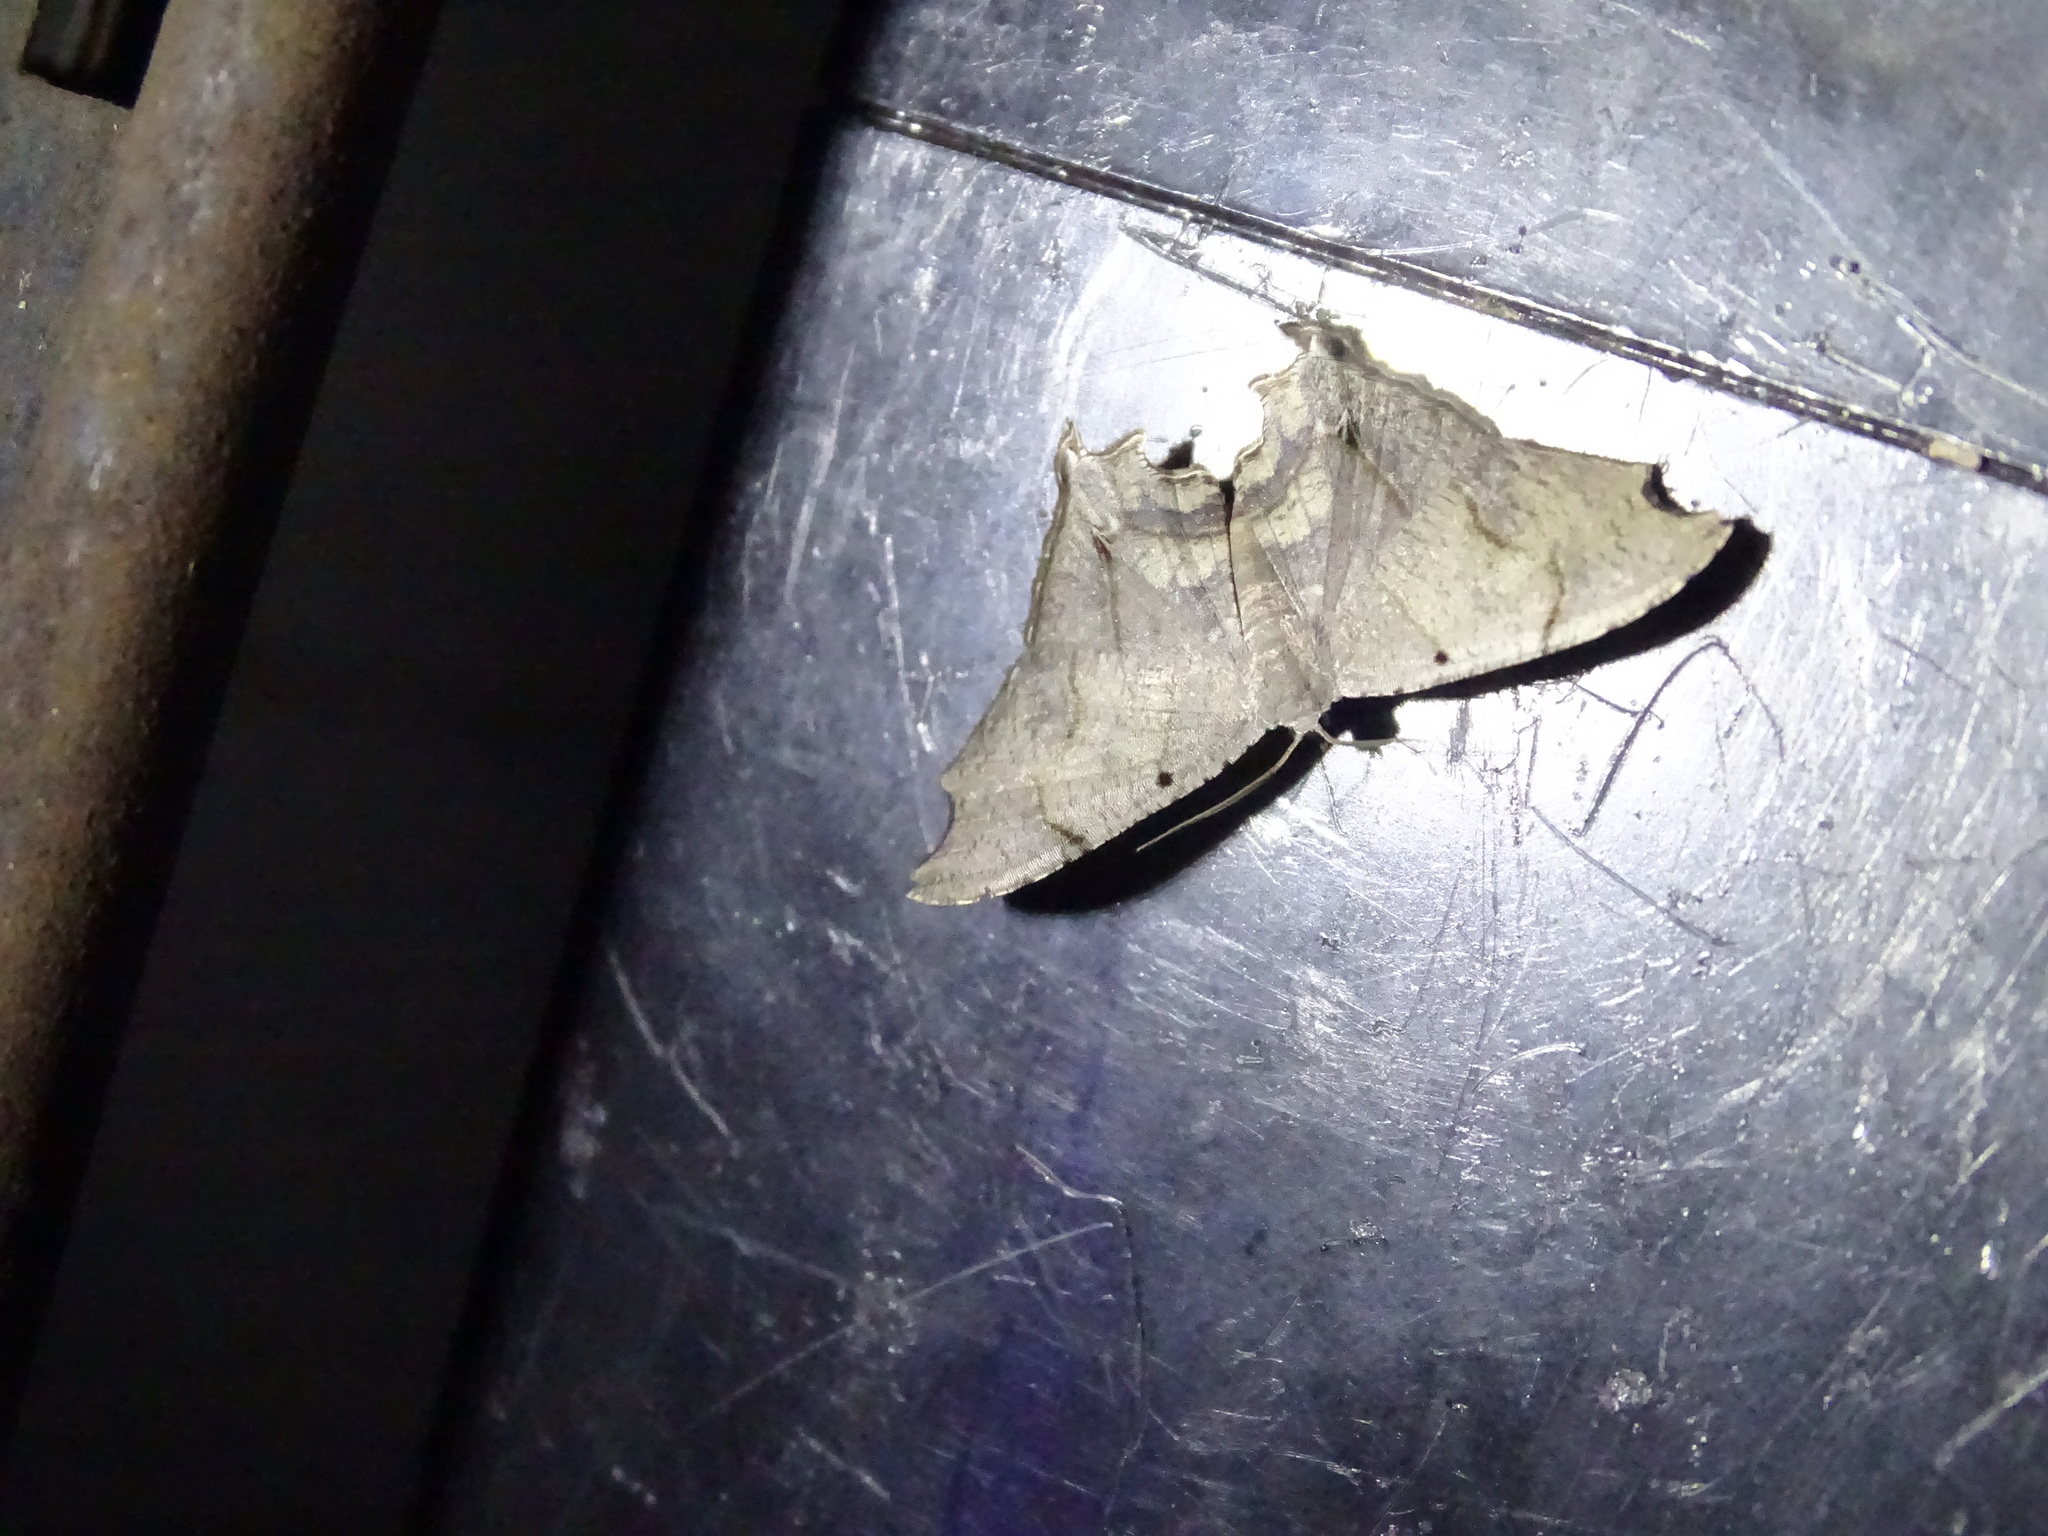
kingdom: Animalia
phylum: Arthropoda
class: Insecta
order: Lepidoptera
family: Uraniidae
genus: Trotorhombia
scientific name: Trotorhombia metachromata
